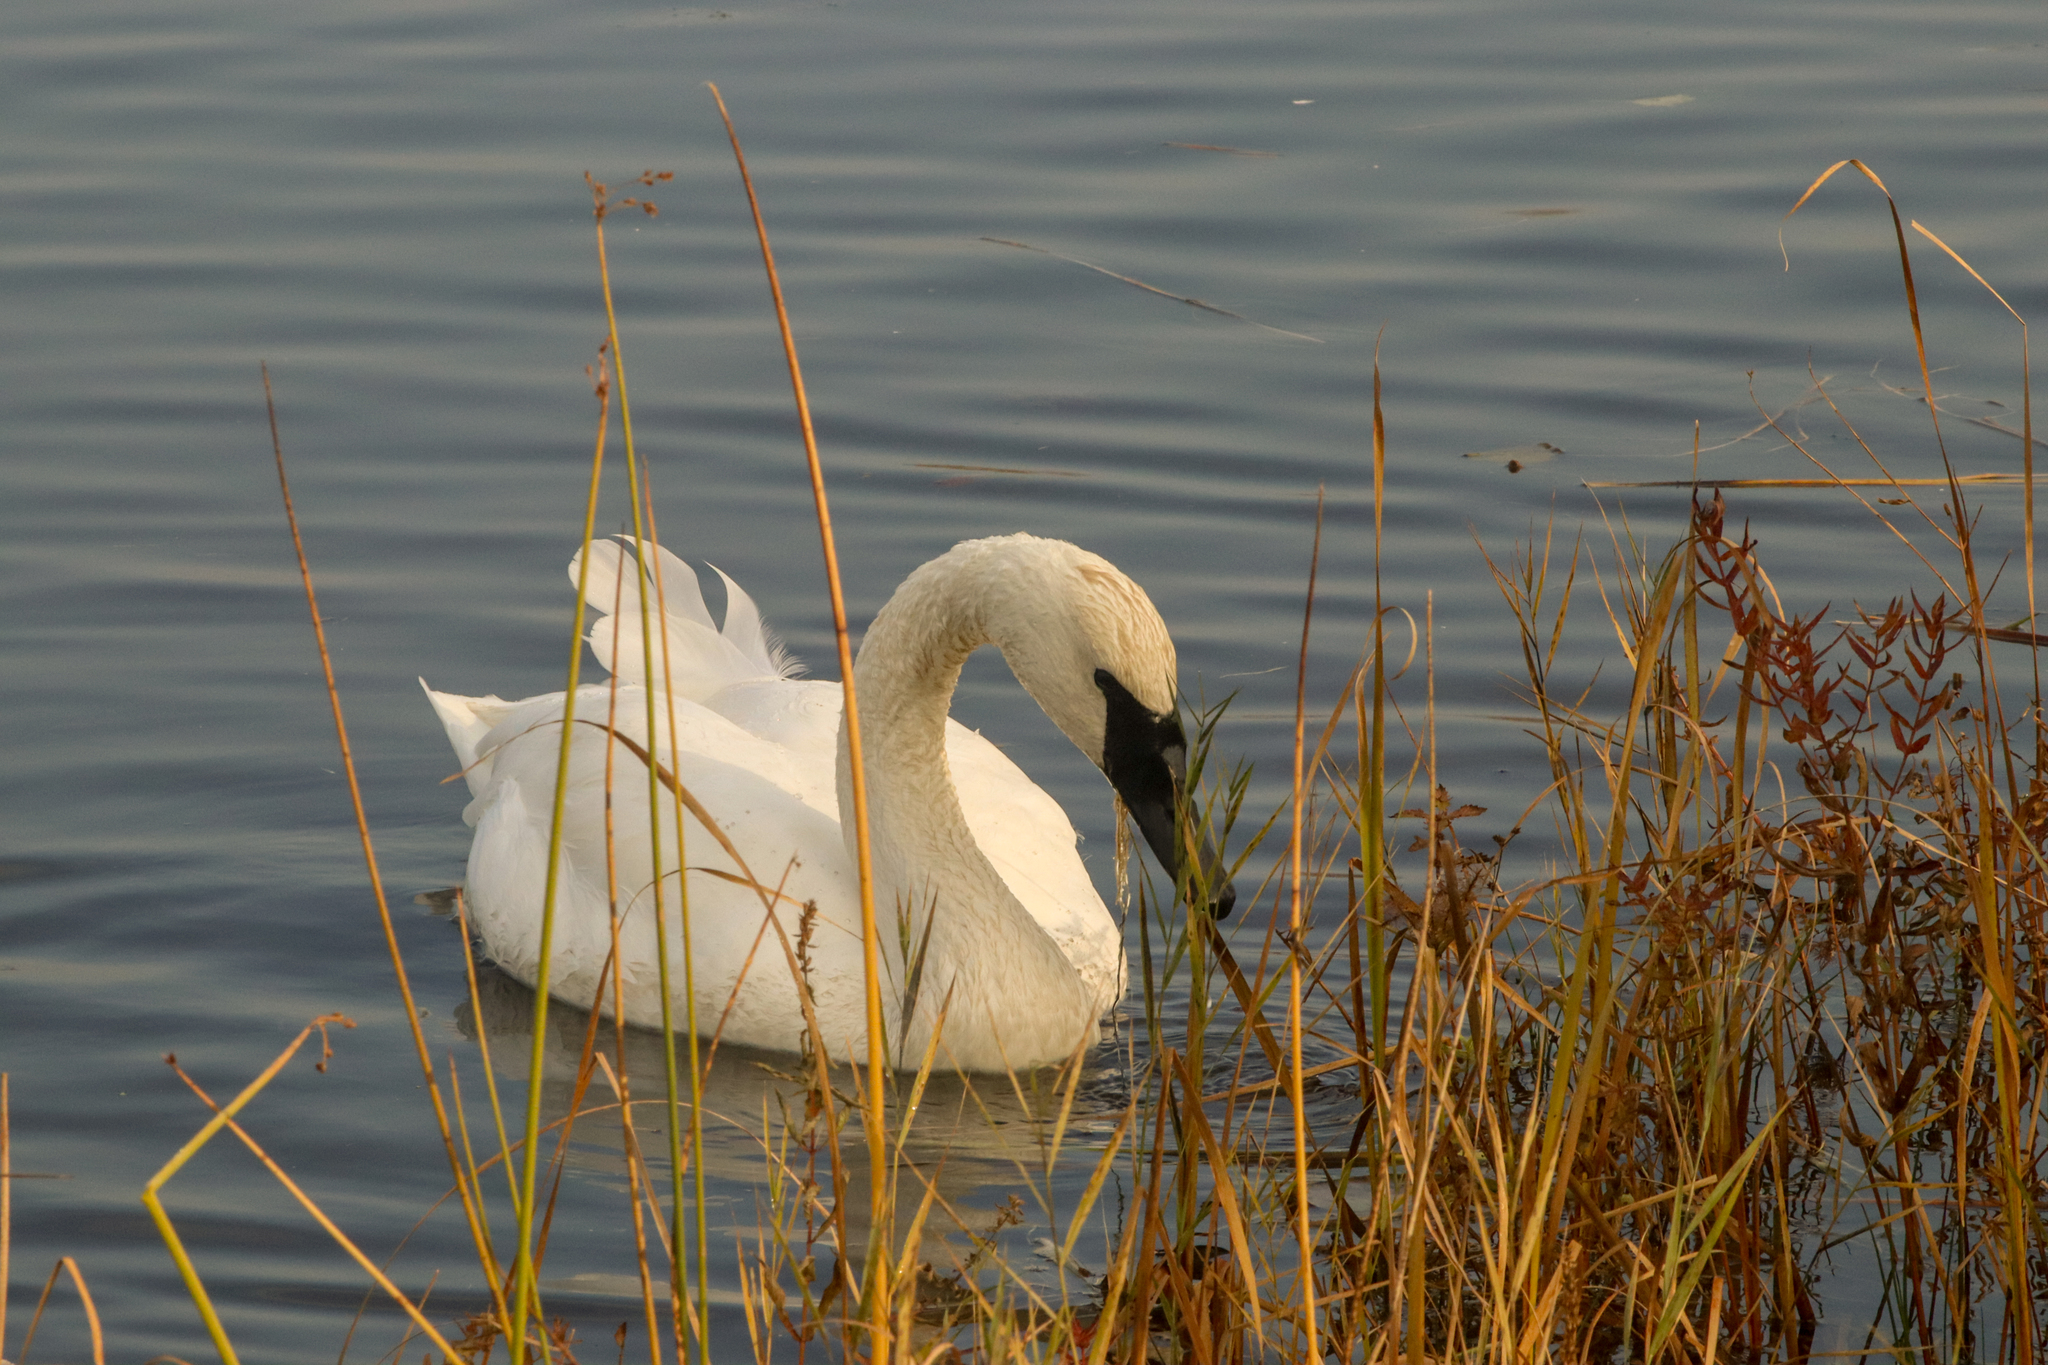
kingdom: Animalia
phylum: Chordata
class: Aves
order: Anseriformes
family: Anatidae
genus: Cygnus
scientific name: Cygnus buccinator
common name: Trumpeter swan
